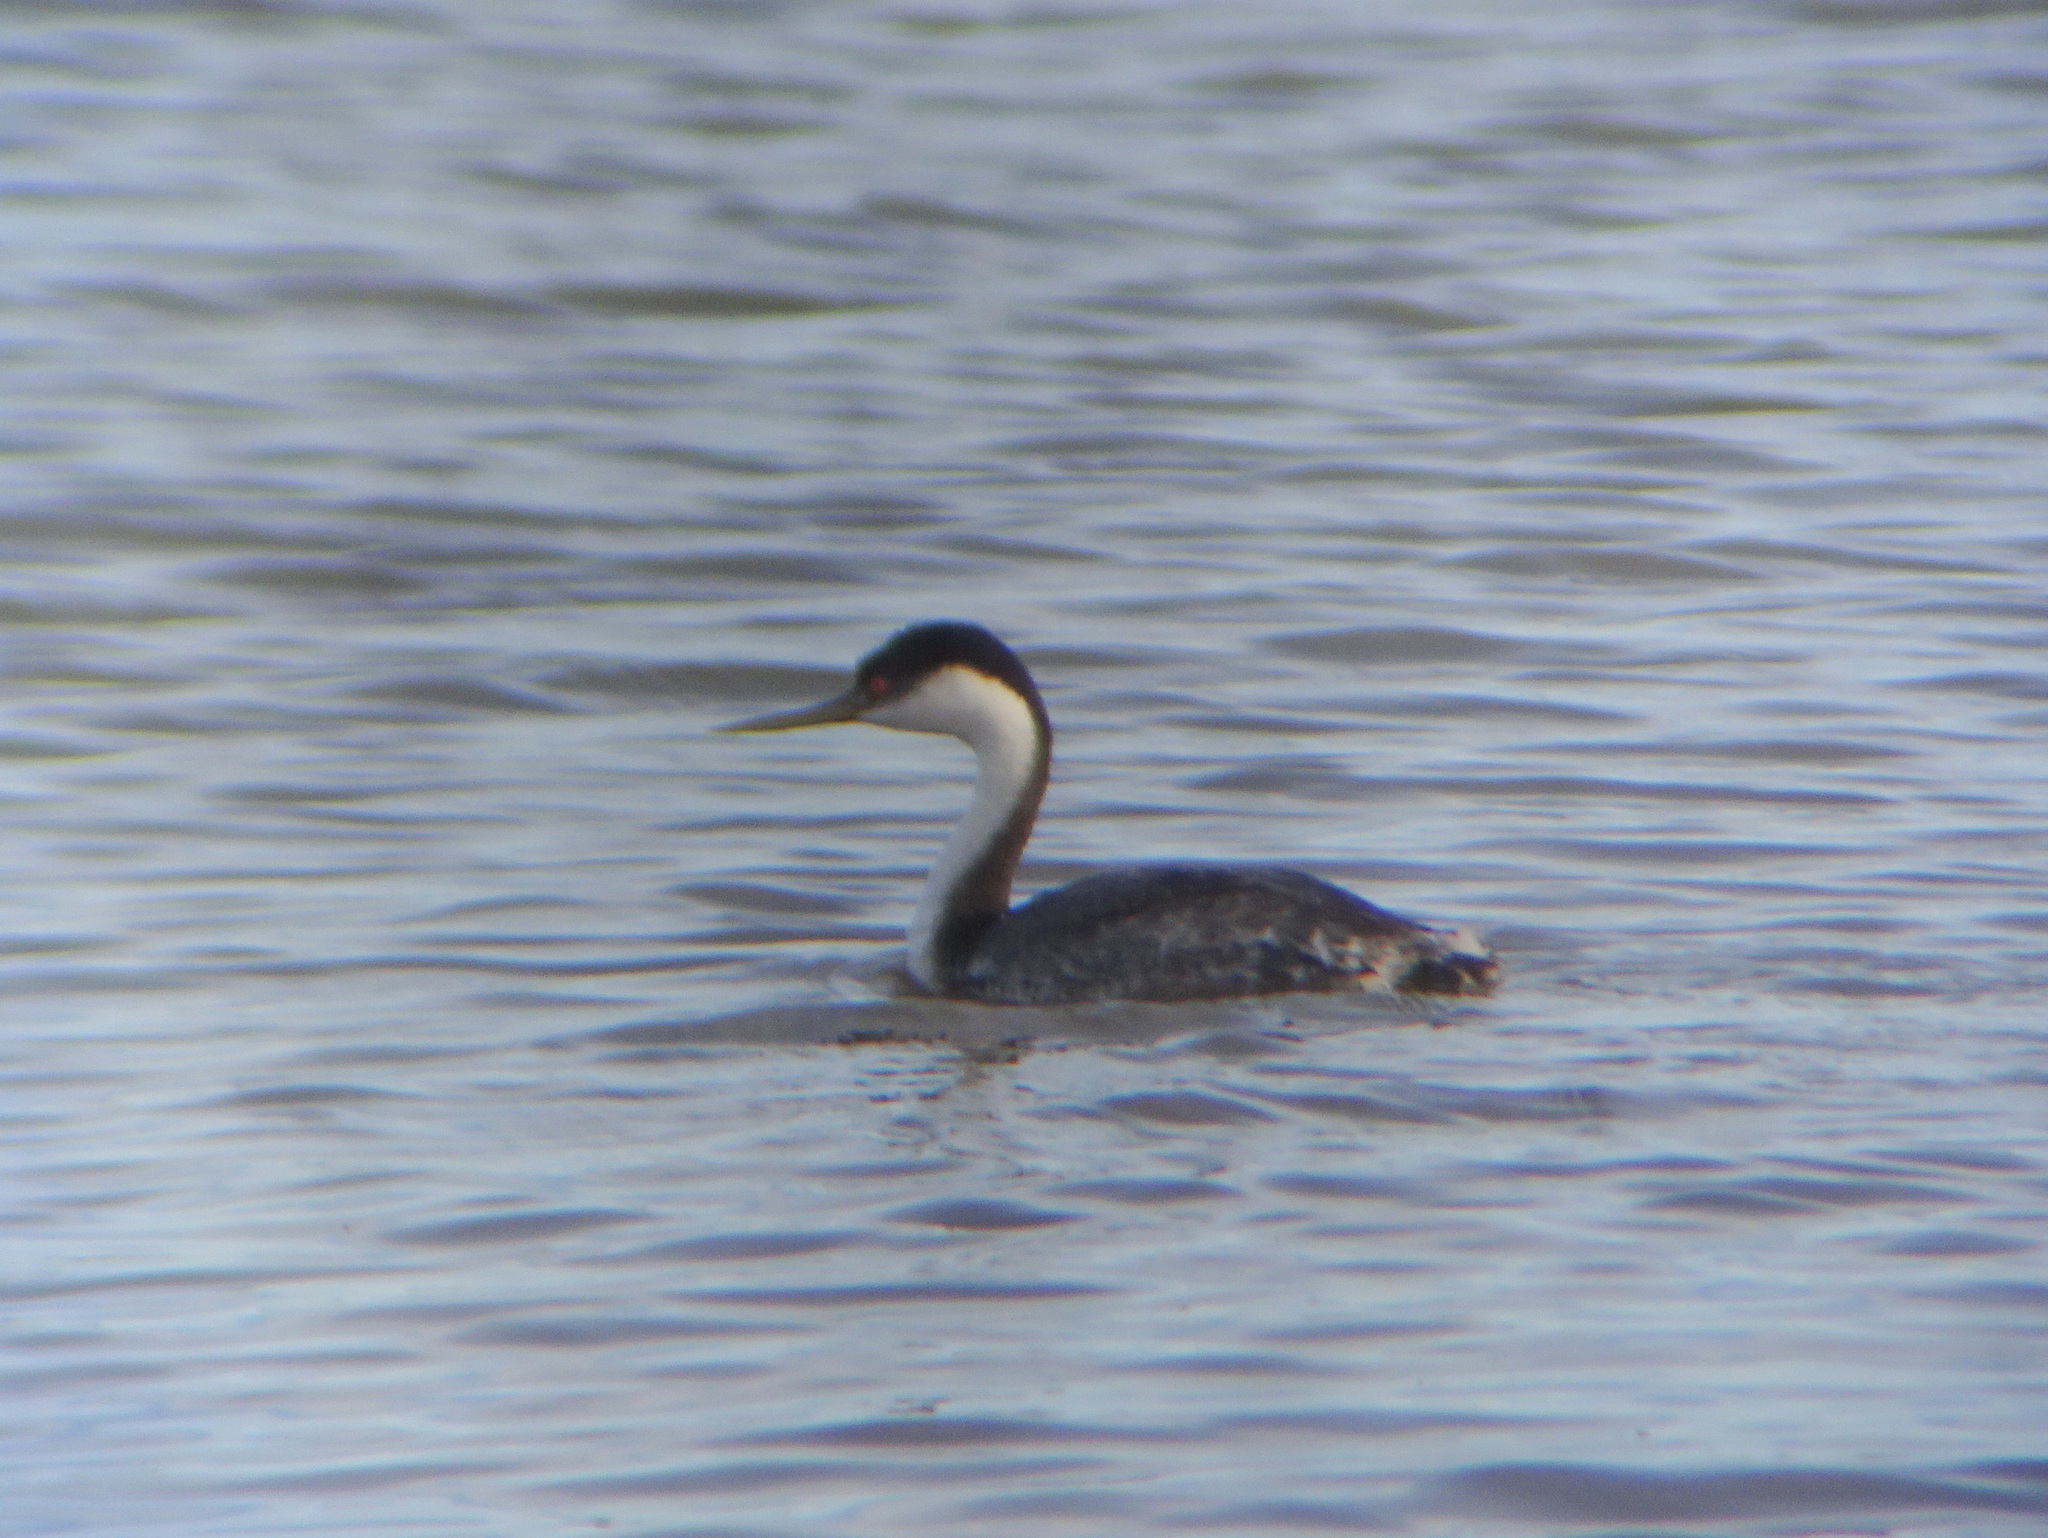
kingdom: Animalia
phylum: Chordata
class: Aves
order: Podicipediformes
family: Podicipedidae
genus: Aechmophorus
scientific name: Aechmophorus occidentalis
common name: Western grebe
